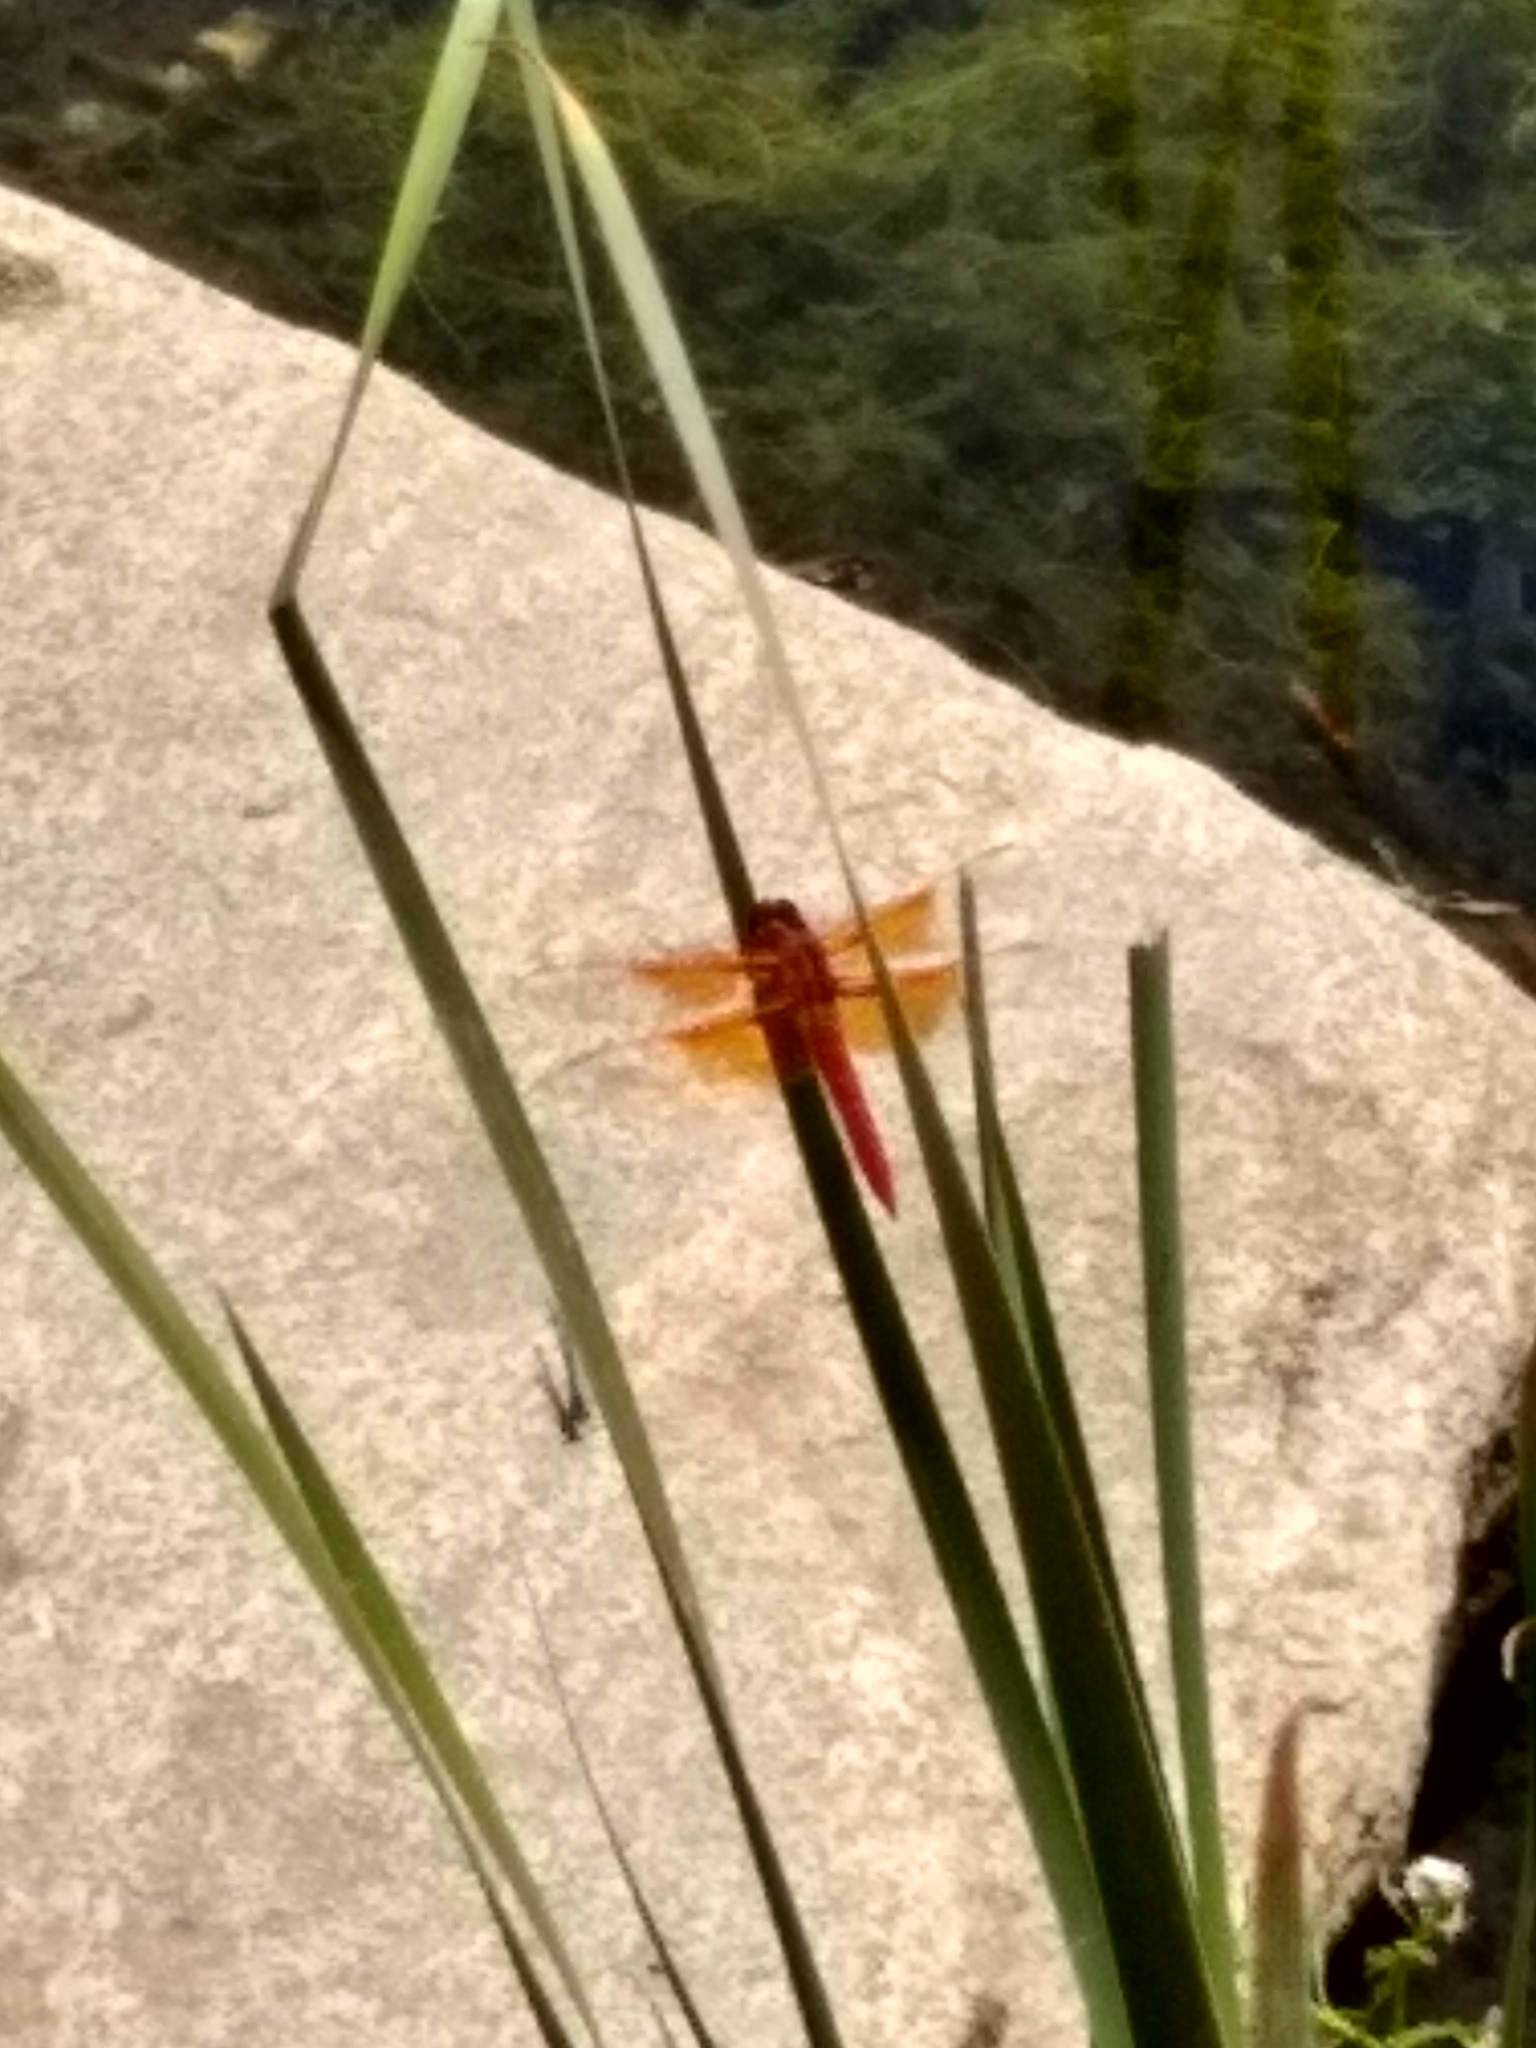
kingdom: Animalia
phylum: Arthropoda
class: Insecta
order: Odonata
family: Libellulidae
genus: Libellula
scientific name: Libellula saturata
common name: Flame skimmer
